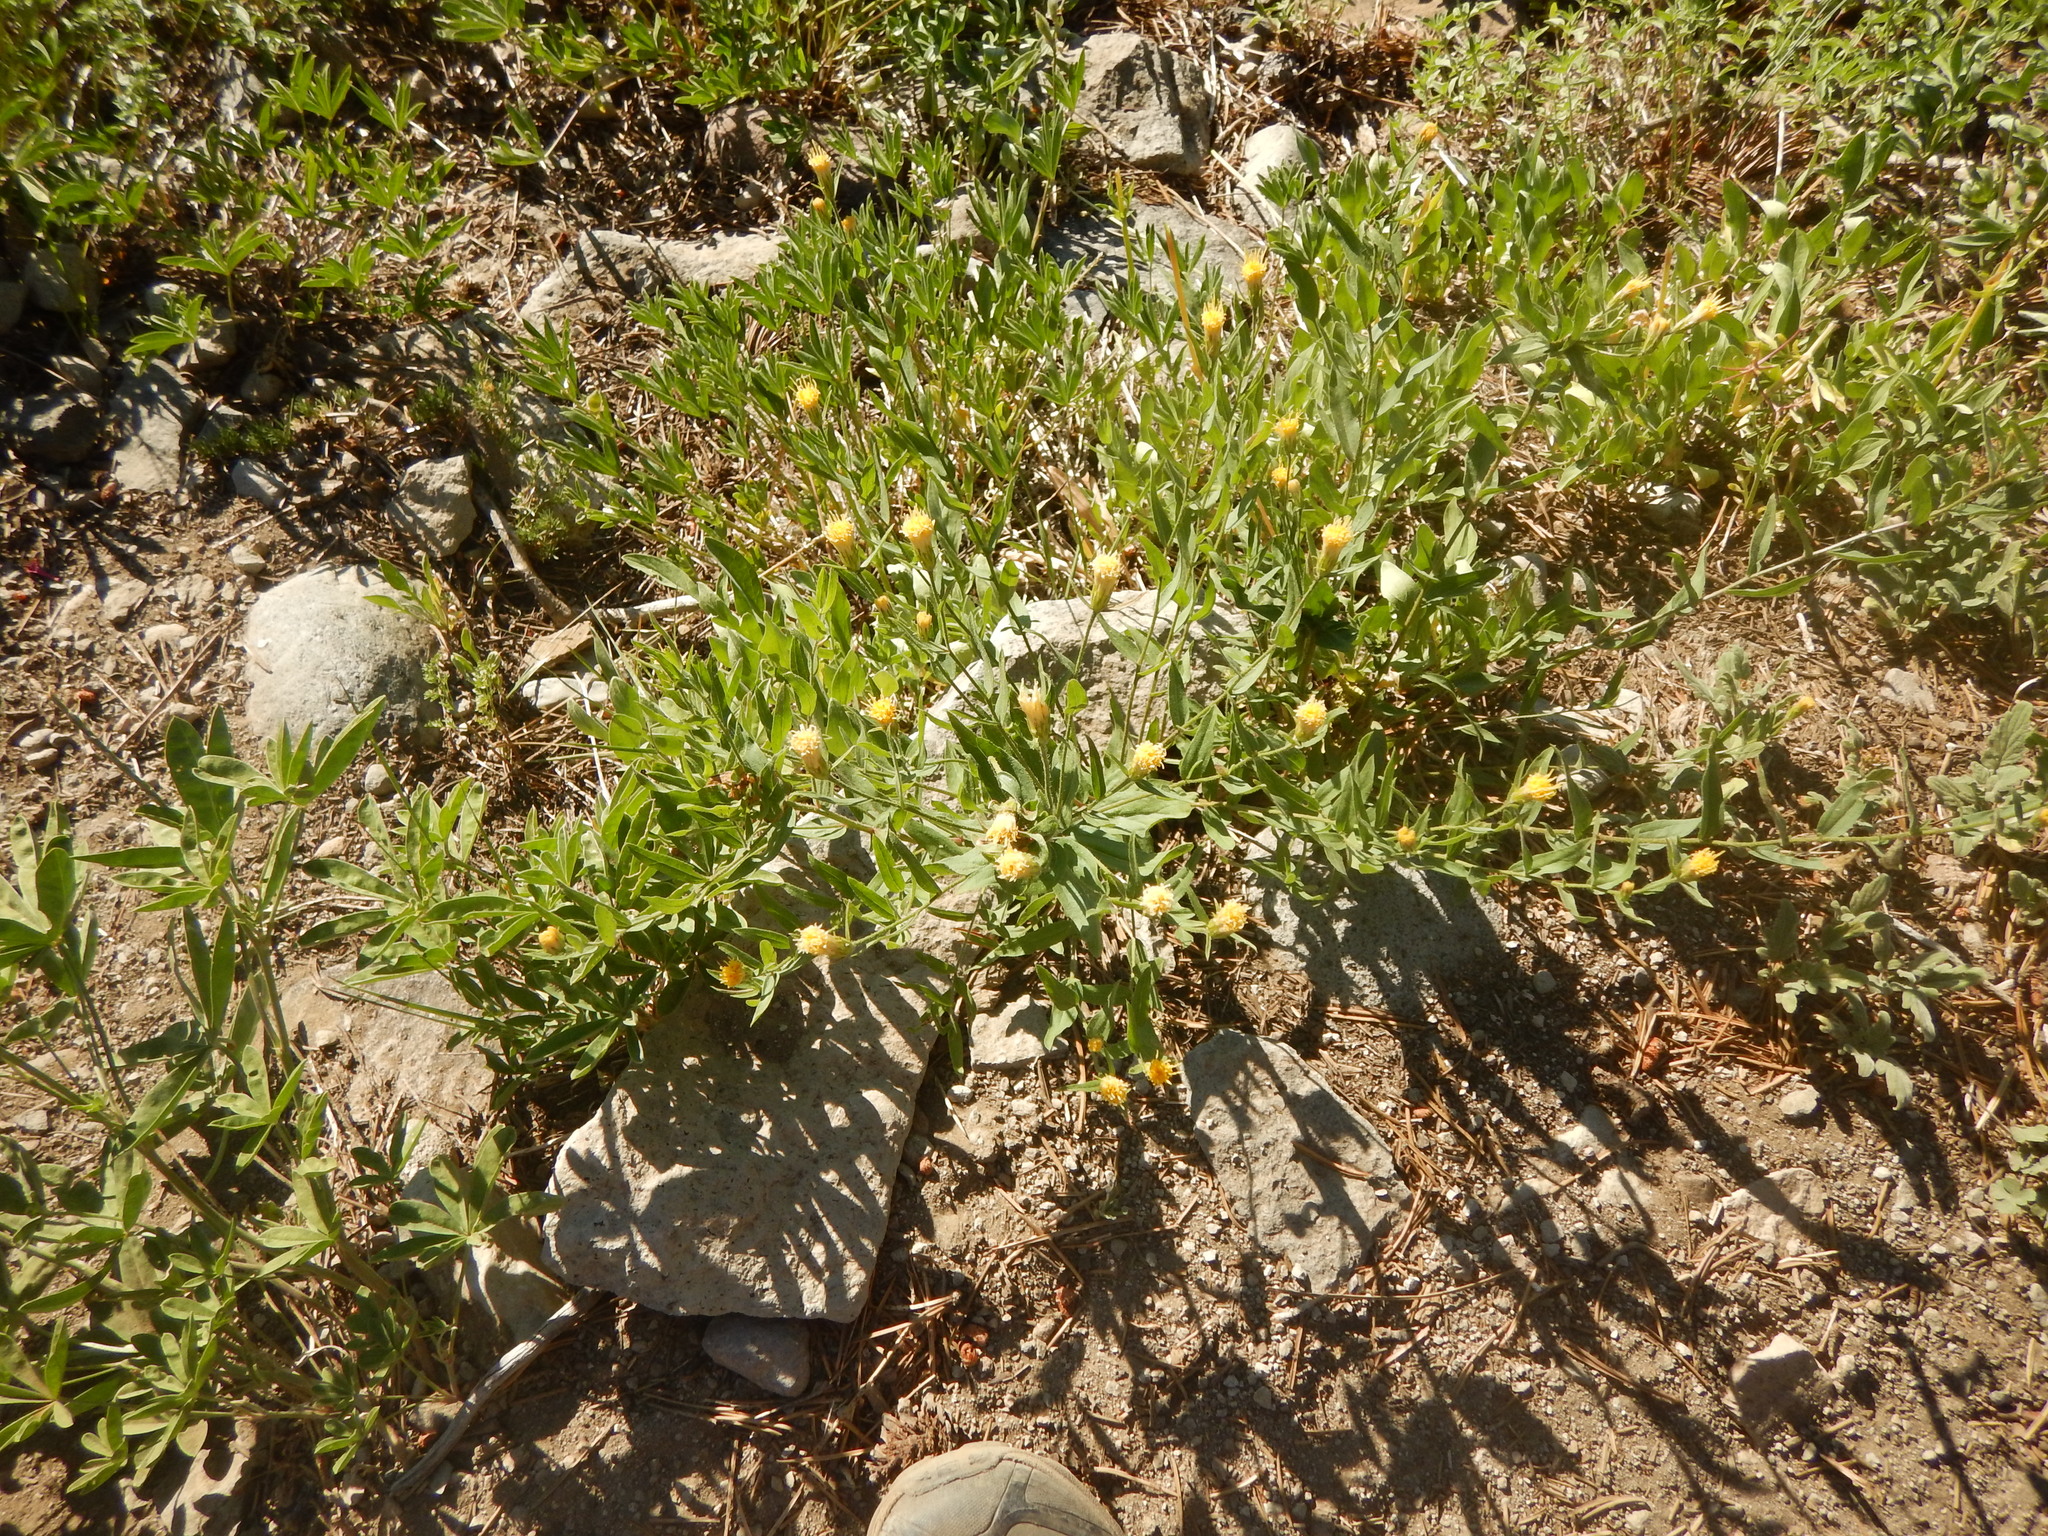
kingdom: Plantae
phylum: Tracheophyta
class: Magnoliopsida
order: Asterales
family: Asteraceae
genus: Eucephalus
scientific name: Eucephalus breweri
